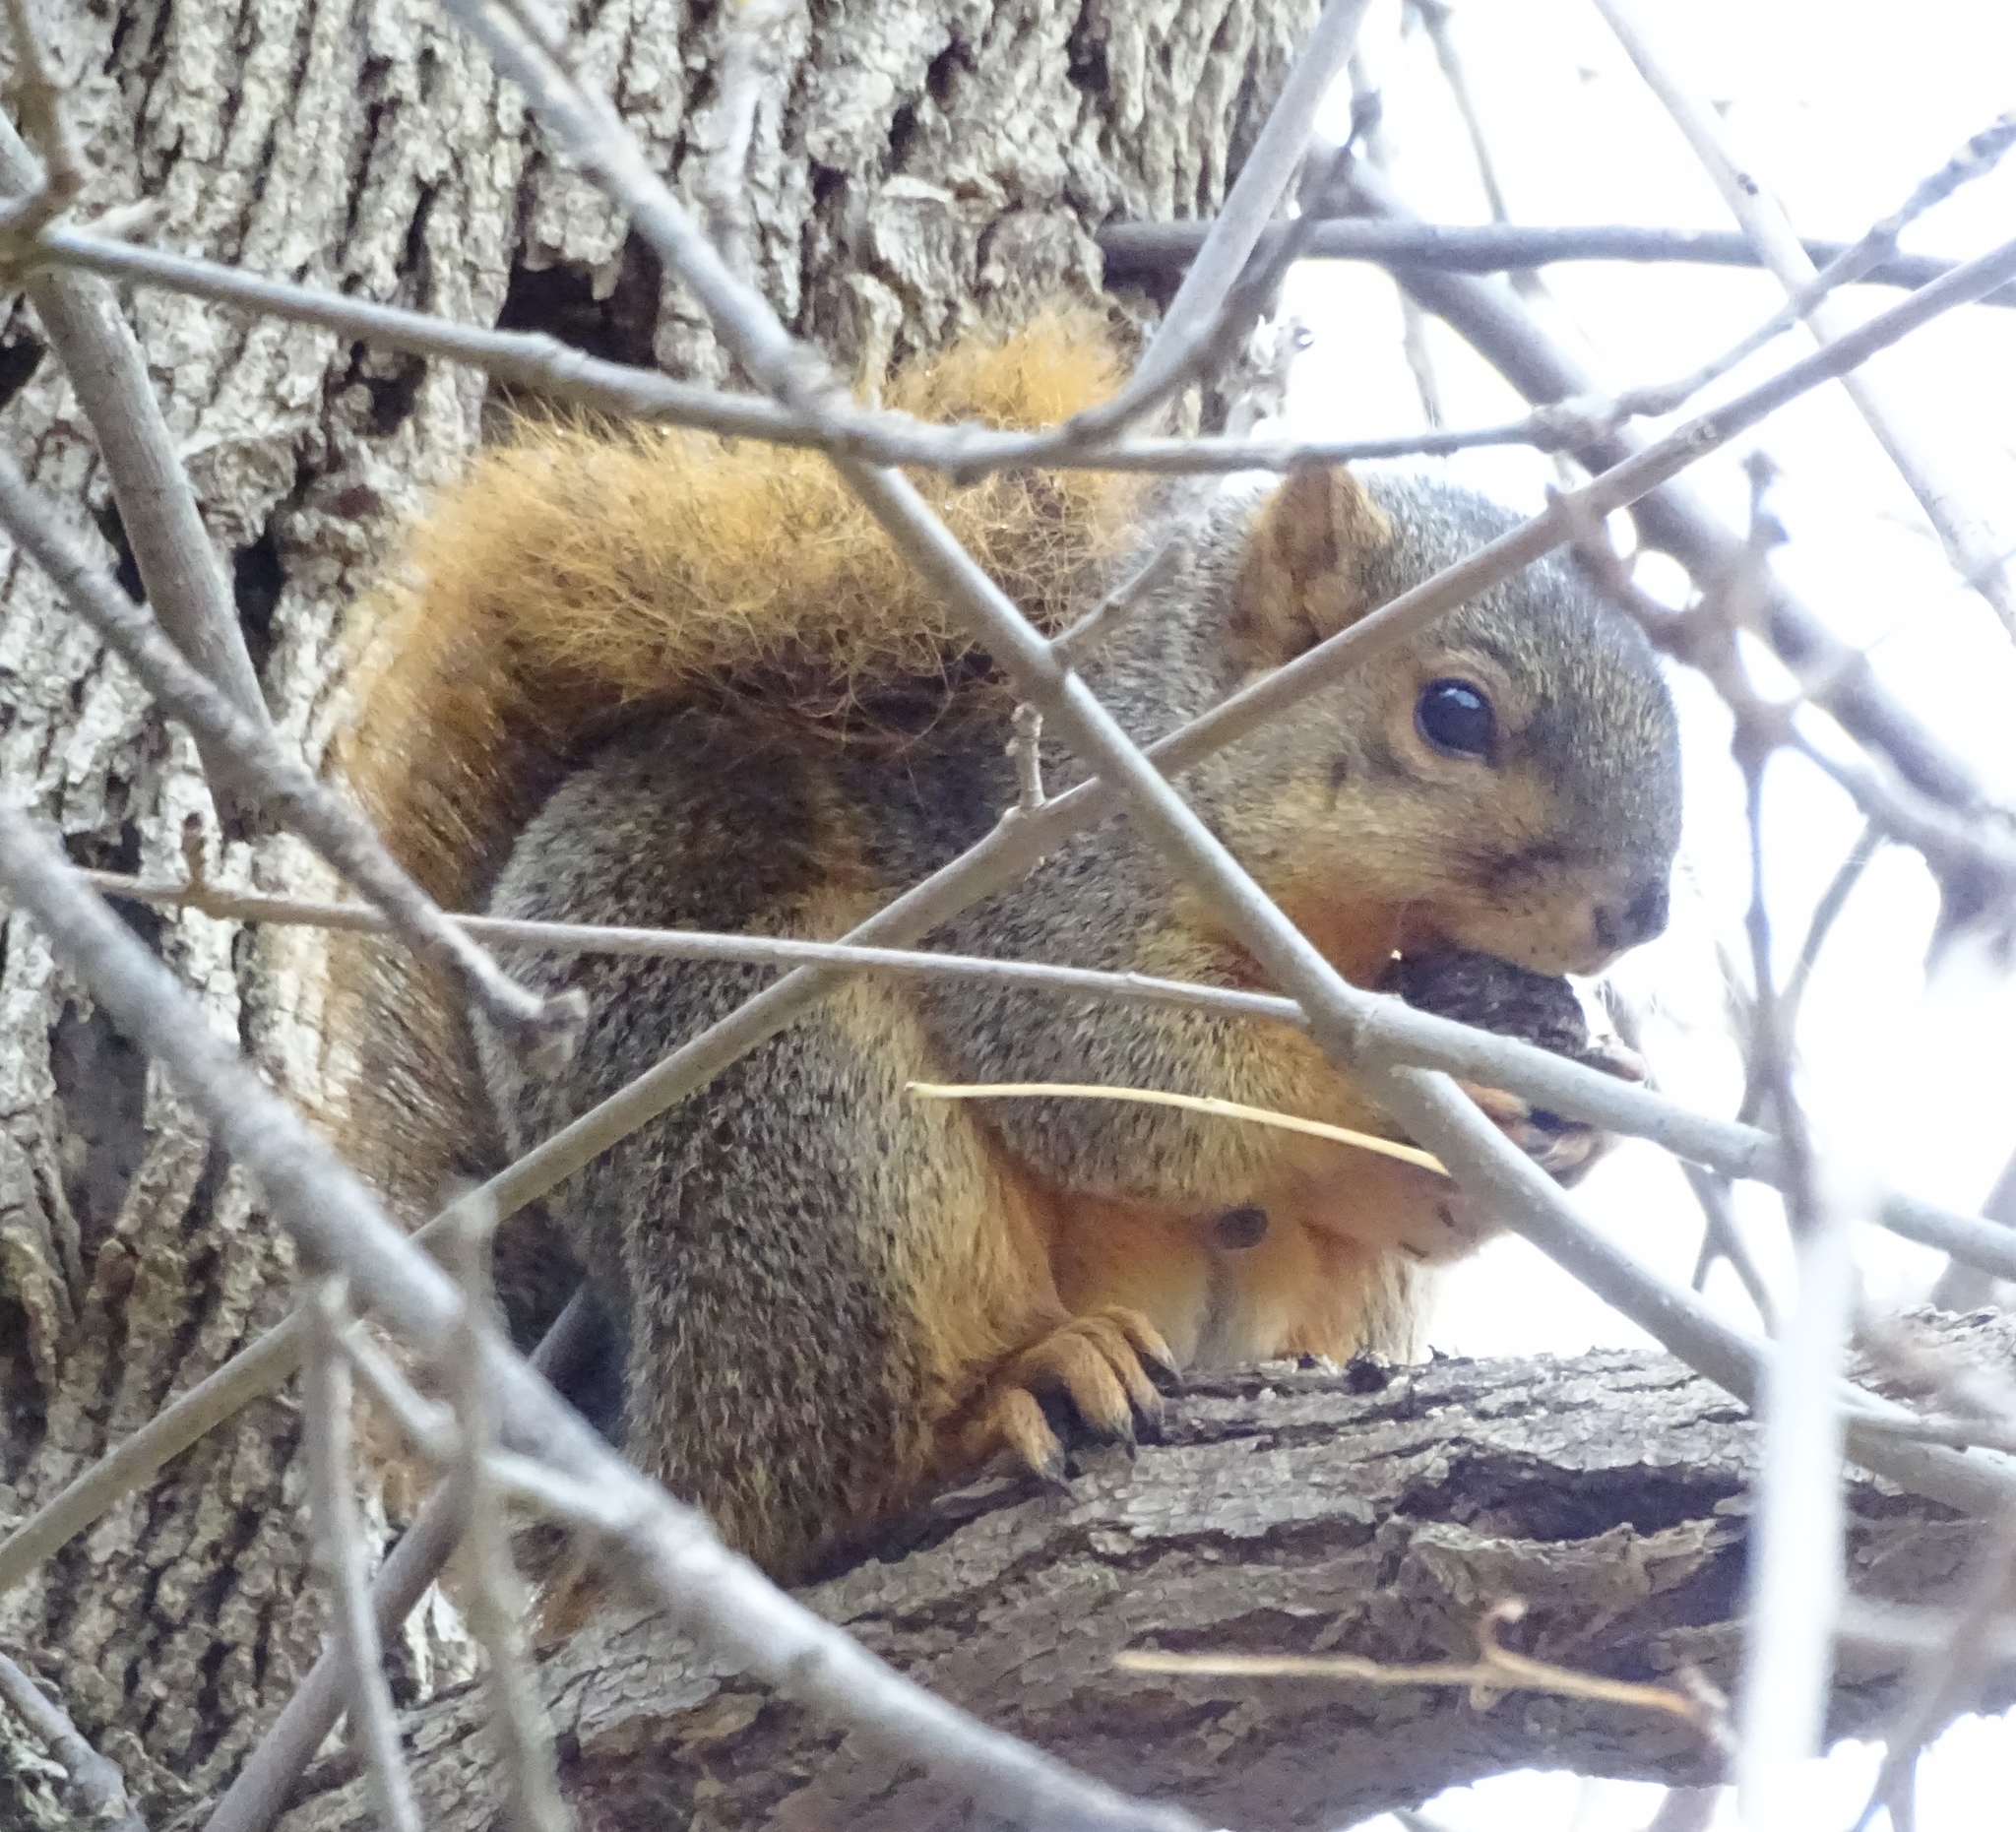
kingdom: Animalia
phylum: Chordata
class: Mammalia
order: Rodentia
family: Sciuridae
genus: Sciurus
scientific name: Sciurus niger
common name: Fox squirrel
